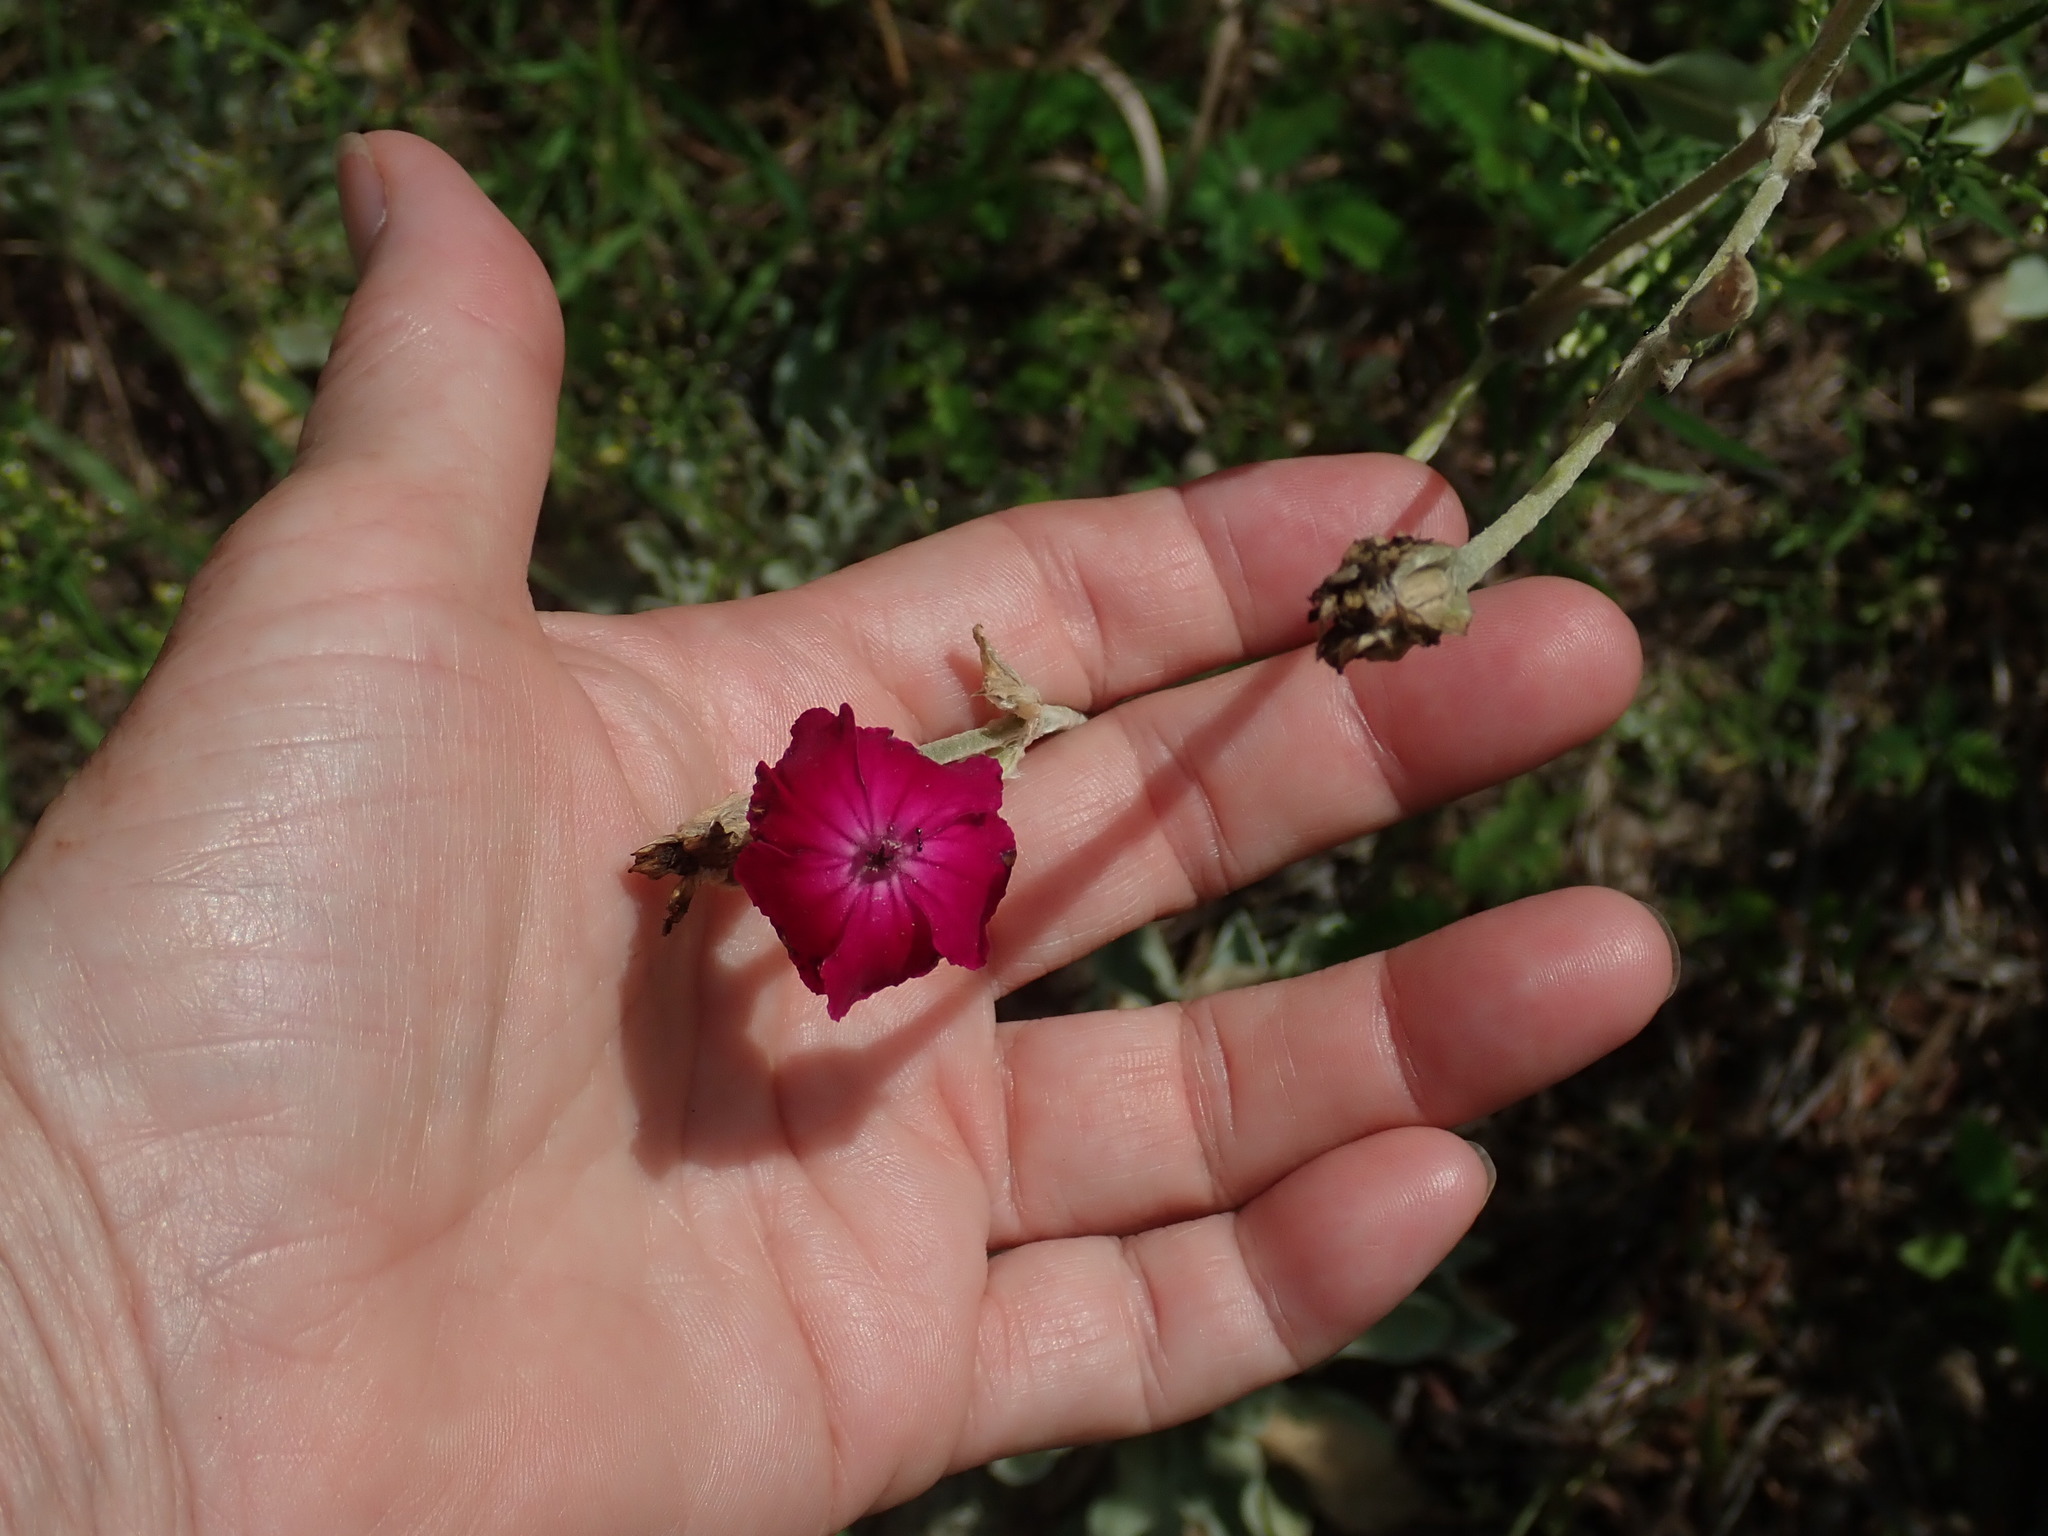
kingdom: Plantae
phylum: Tracheophyta
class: Magnoliopsida
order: Caryophyllales
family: Caryophyllaceae
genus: Silene
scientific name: Silene coronaria
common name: Rose campion
